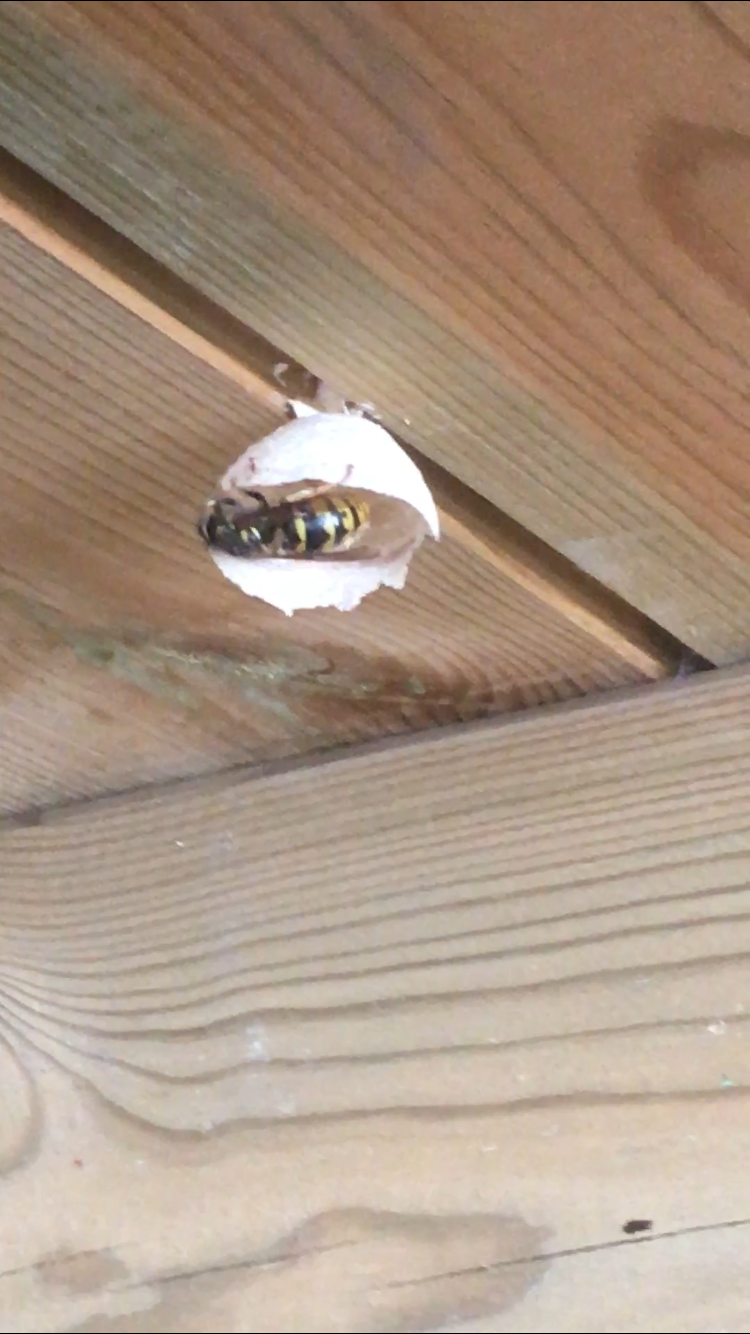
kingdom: Animalia
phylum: Arthropoda
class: Insecta
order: Hymenoptera
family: Vespidae
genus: Vespula
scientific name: Vespula vulgaris
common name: Common wasp
